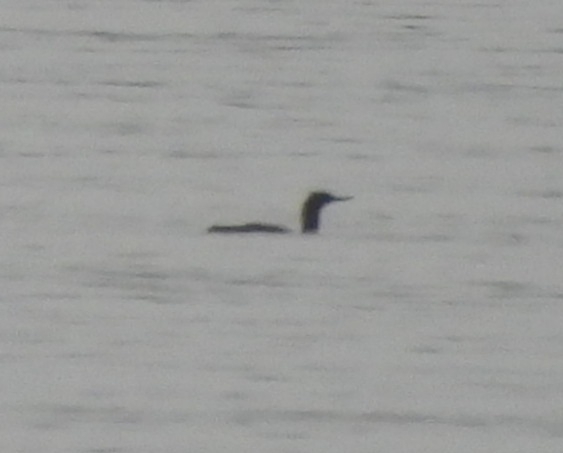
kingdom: Animalia
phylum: Chordata
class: Aves
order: Gaviiformes
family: Gaviidae
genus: Gavia
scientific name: Gavia stellata
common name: Red-throated loon
